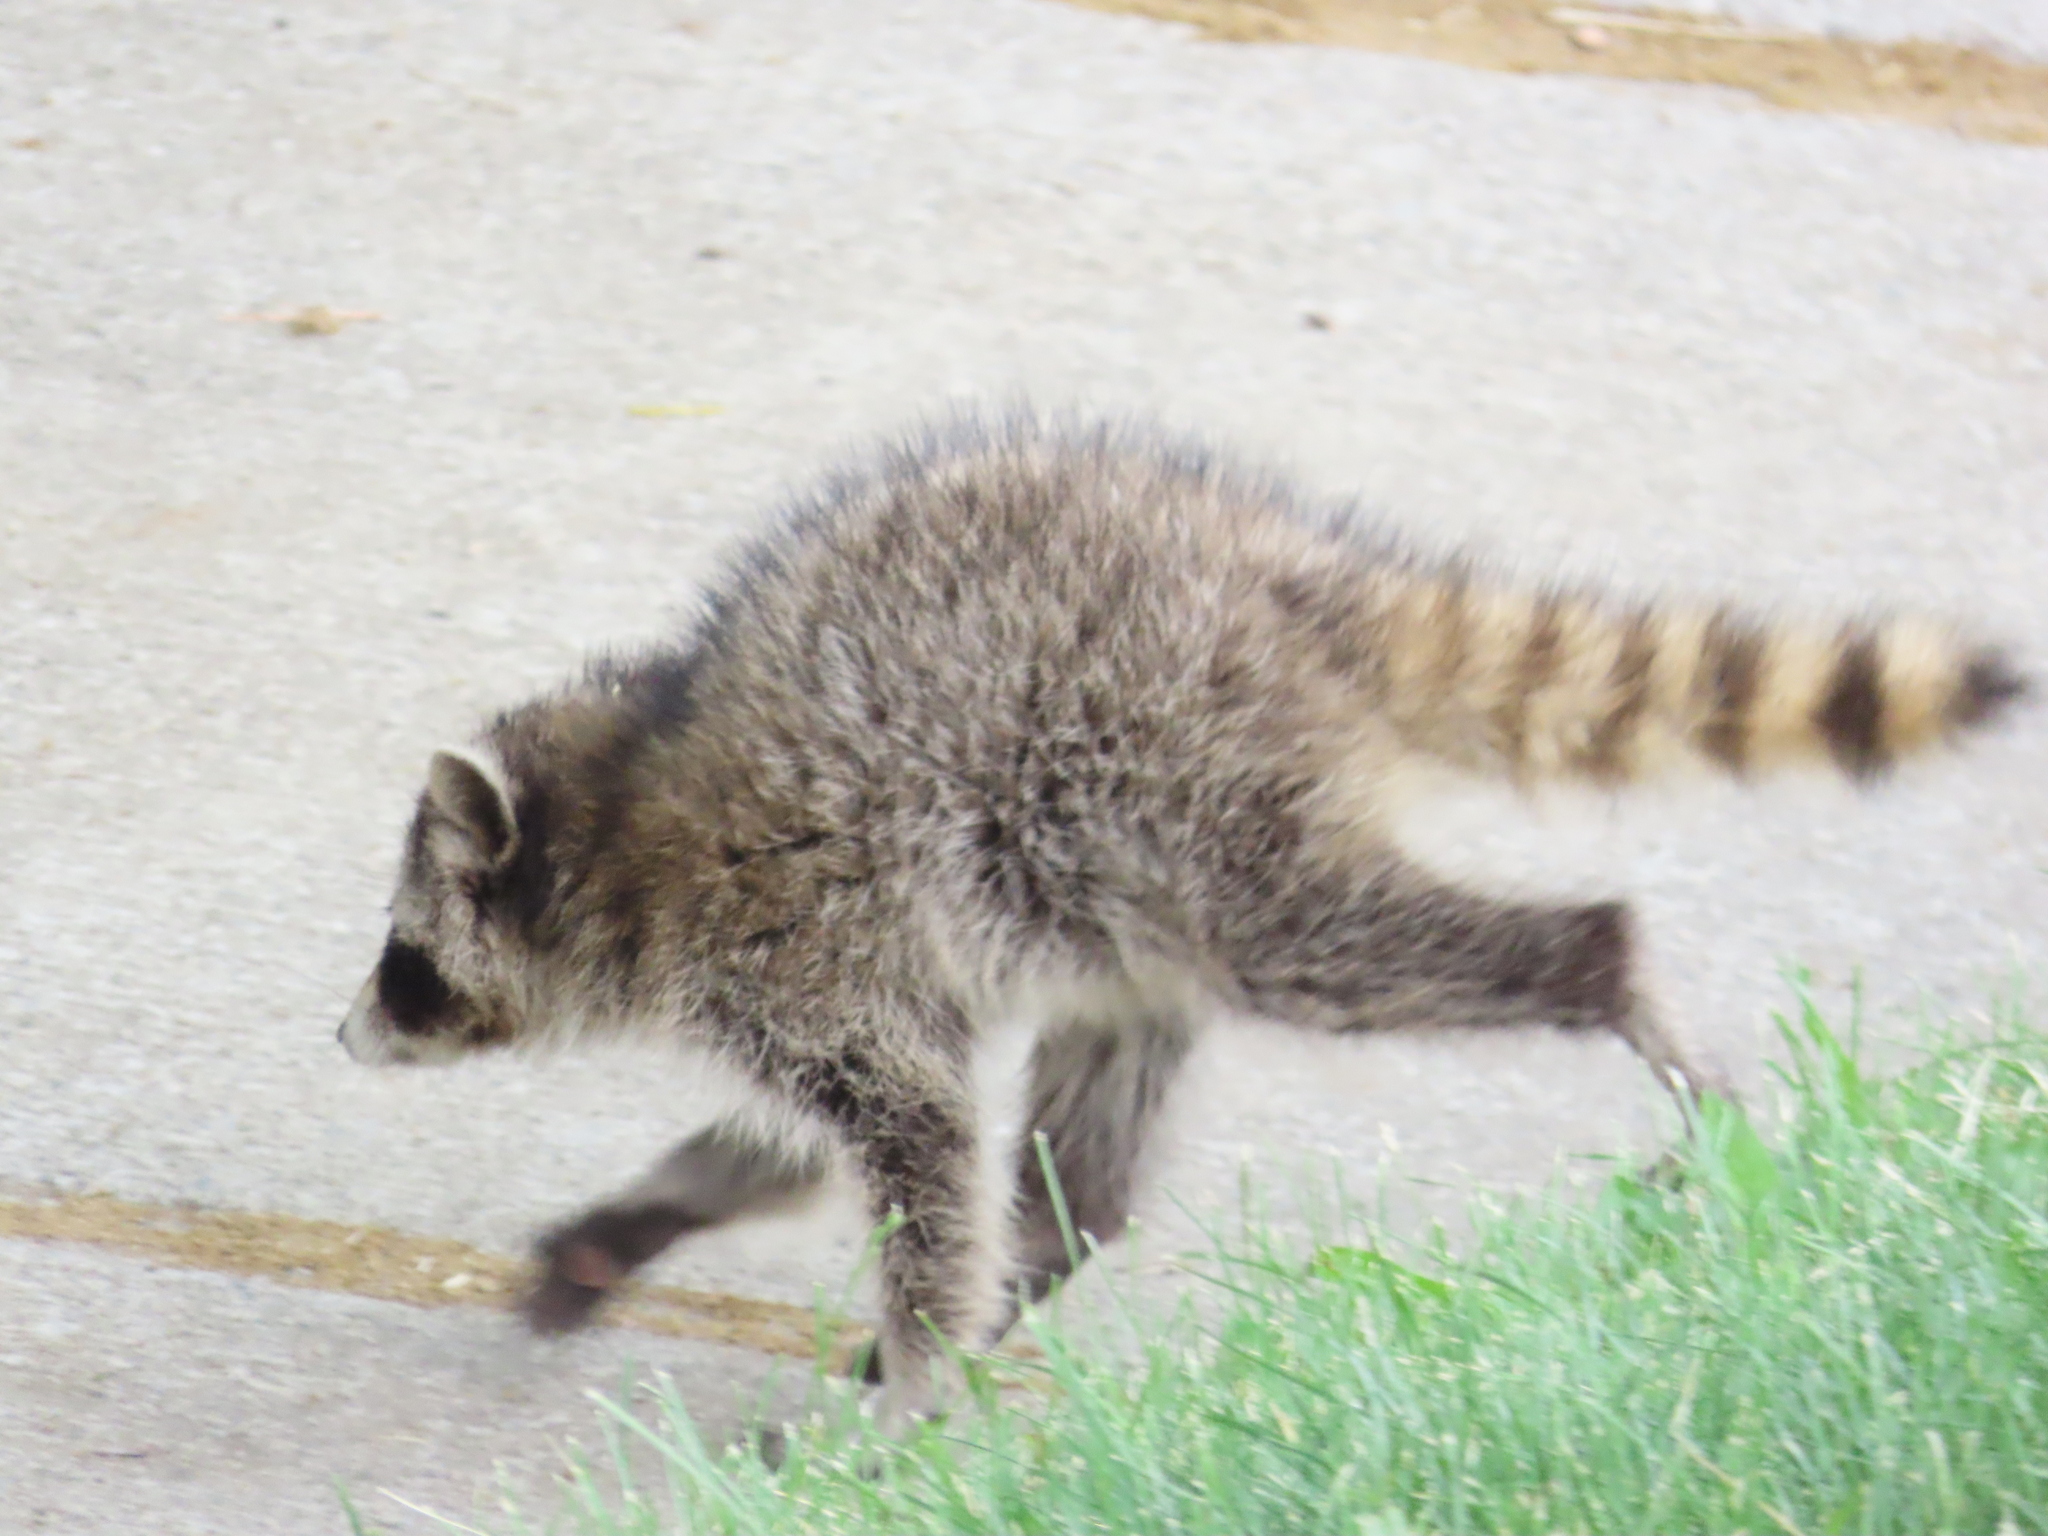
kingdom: Animalia
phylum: Chordata
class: Mammalia
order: Carnivora
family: Procyonidae
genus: Procyon
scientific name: Procyon lotor
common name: Raccoon
